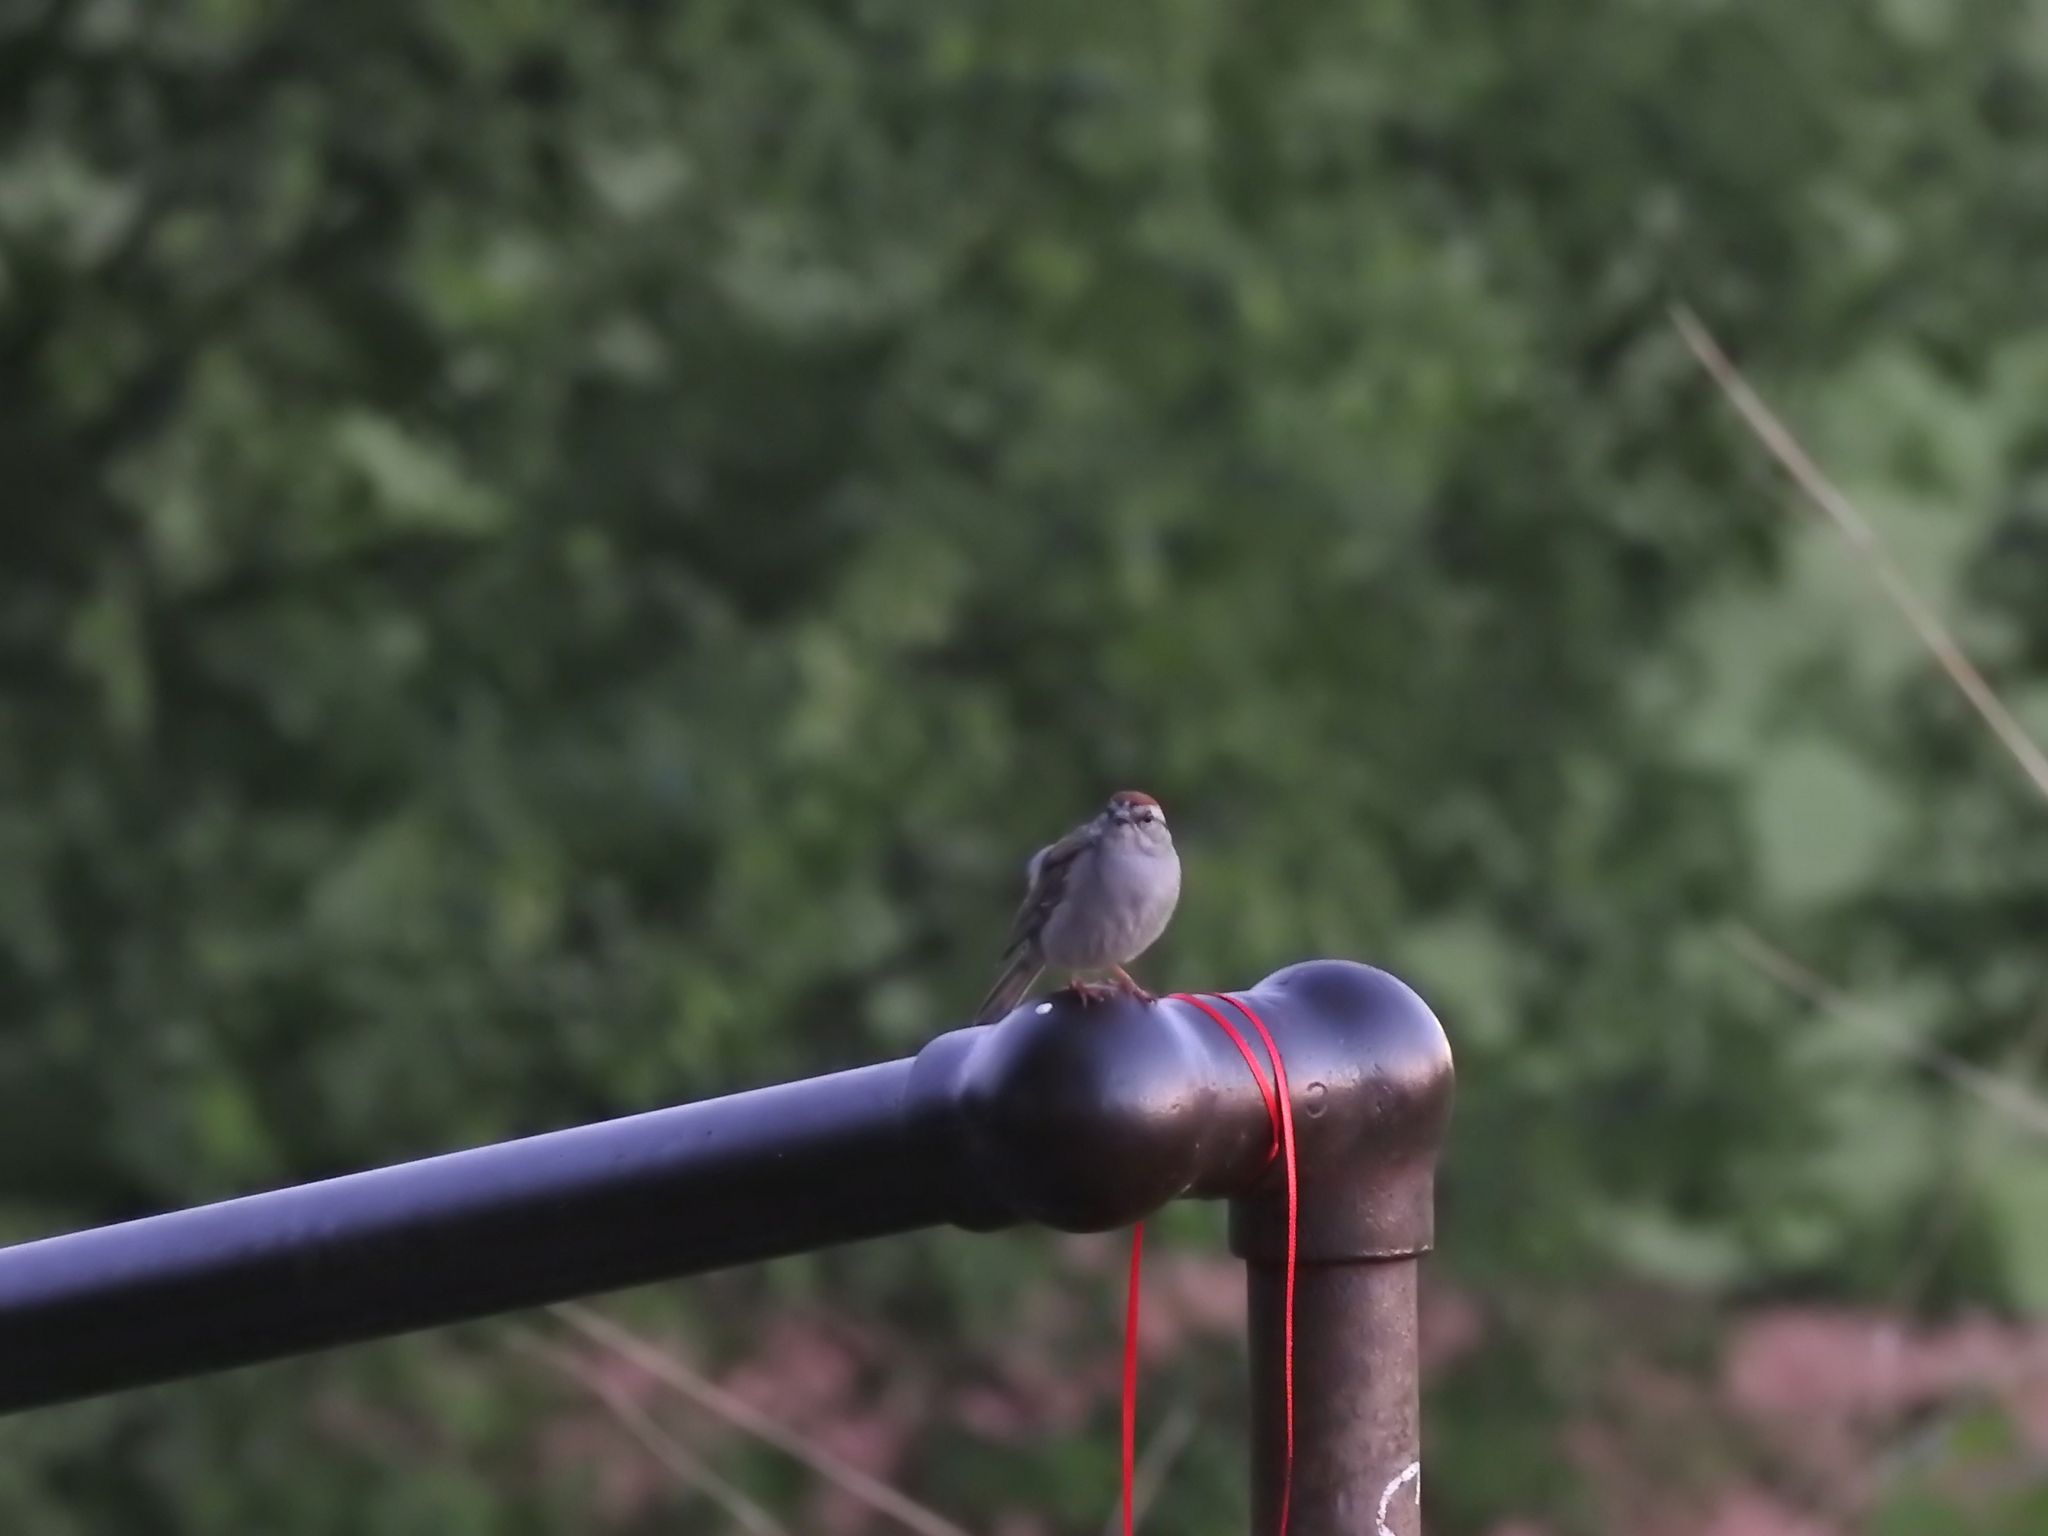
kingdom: Animalia
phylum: Chordata
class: Aves
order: Passeriformes
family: Passerellidae
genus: Spizella
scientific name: Spizella passerina
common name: Chipping sparrow
